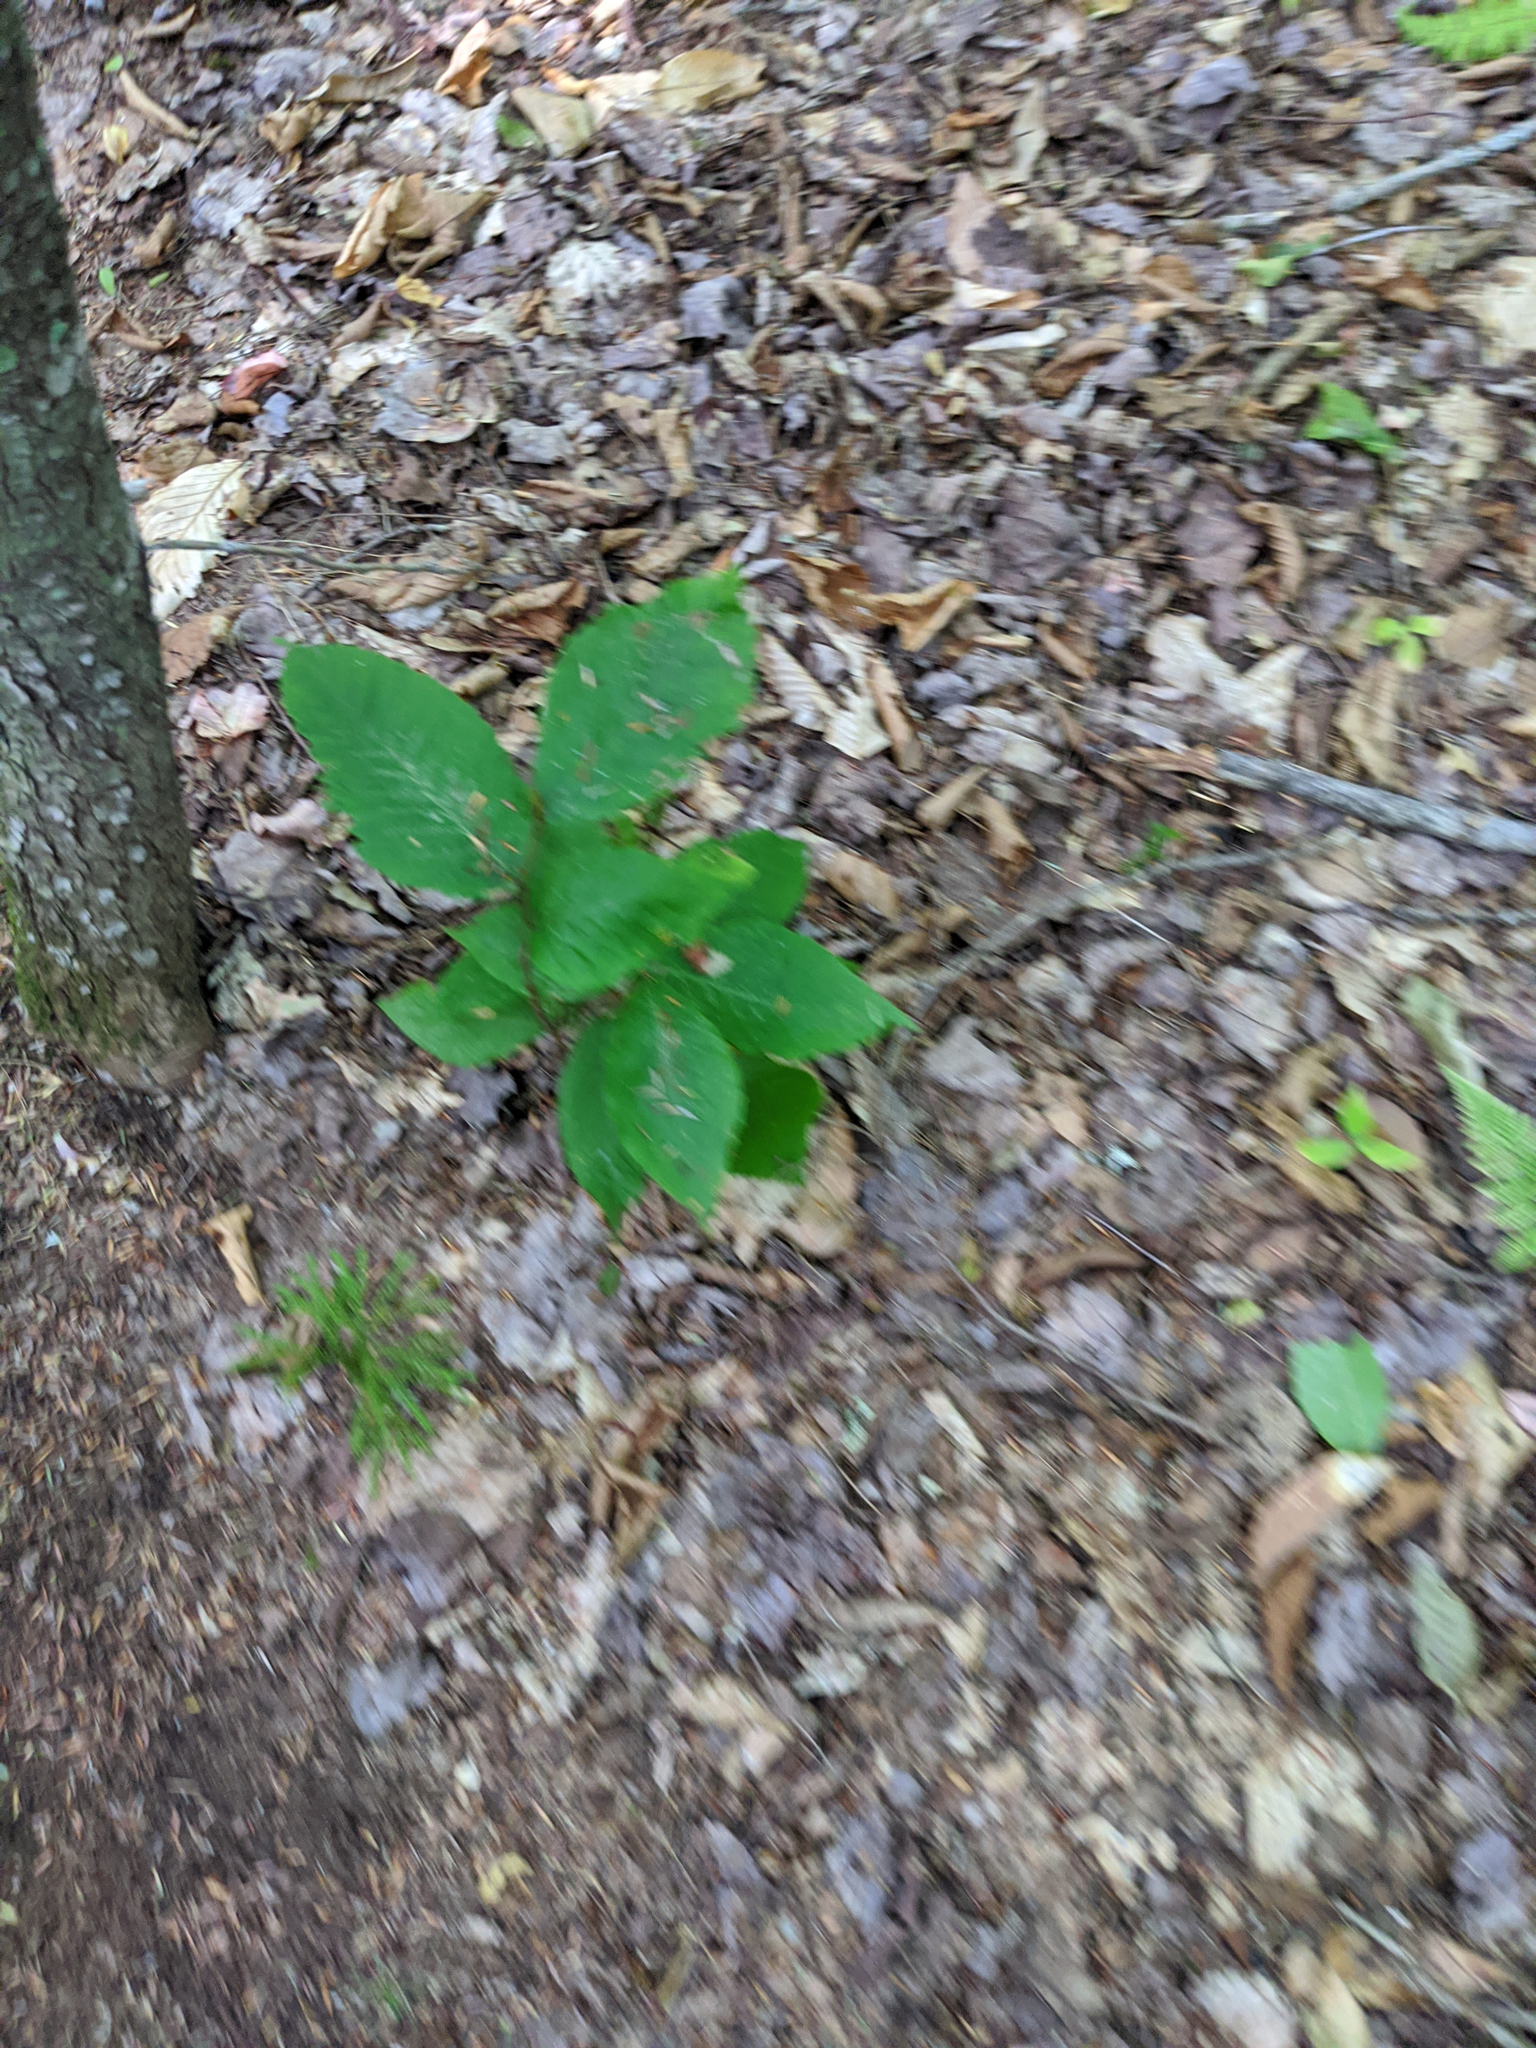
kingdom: Plantae
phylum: Tracheophyta
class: Magnoliopsida
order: Fagales
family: Fagaceae
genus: Fagus
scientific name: Fagus grandifolia
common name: American beech
